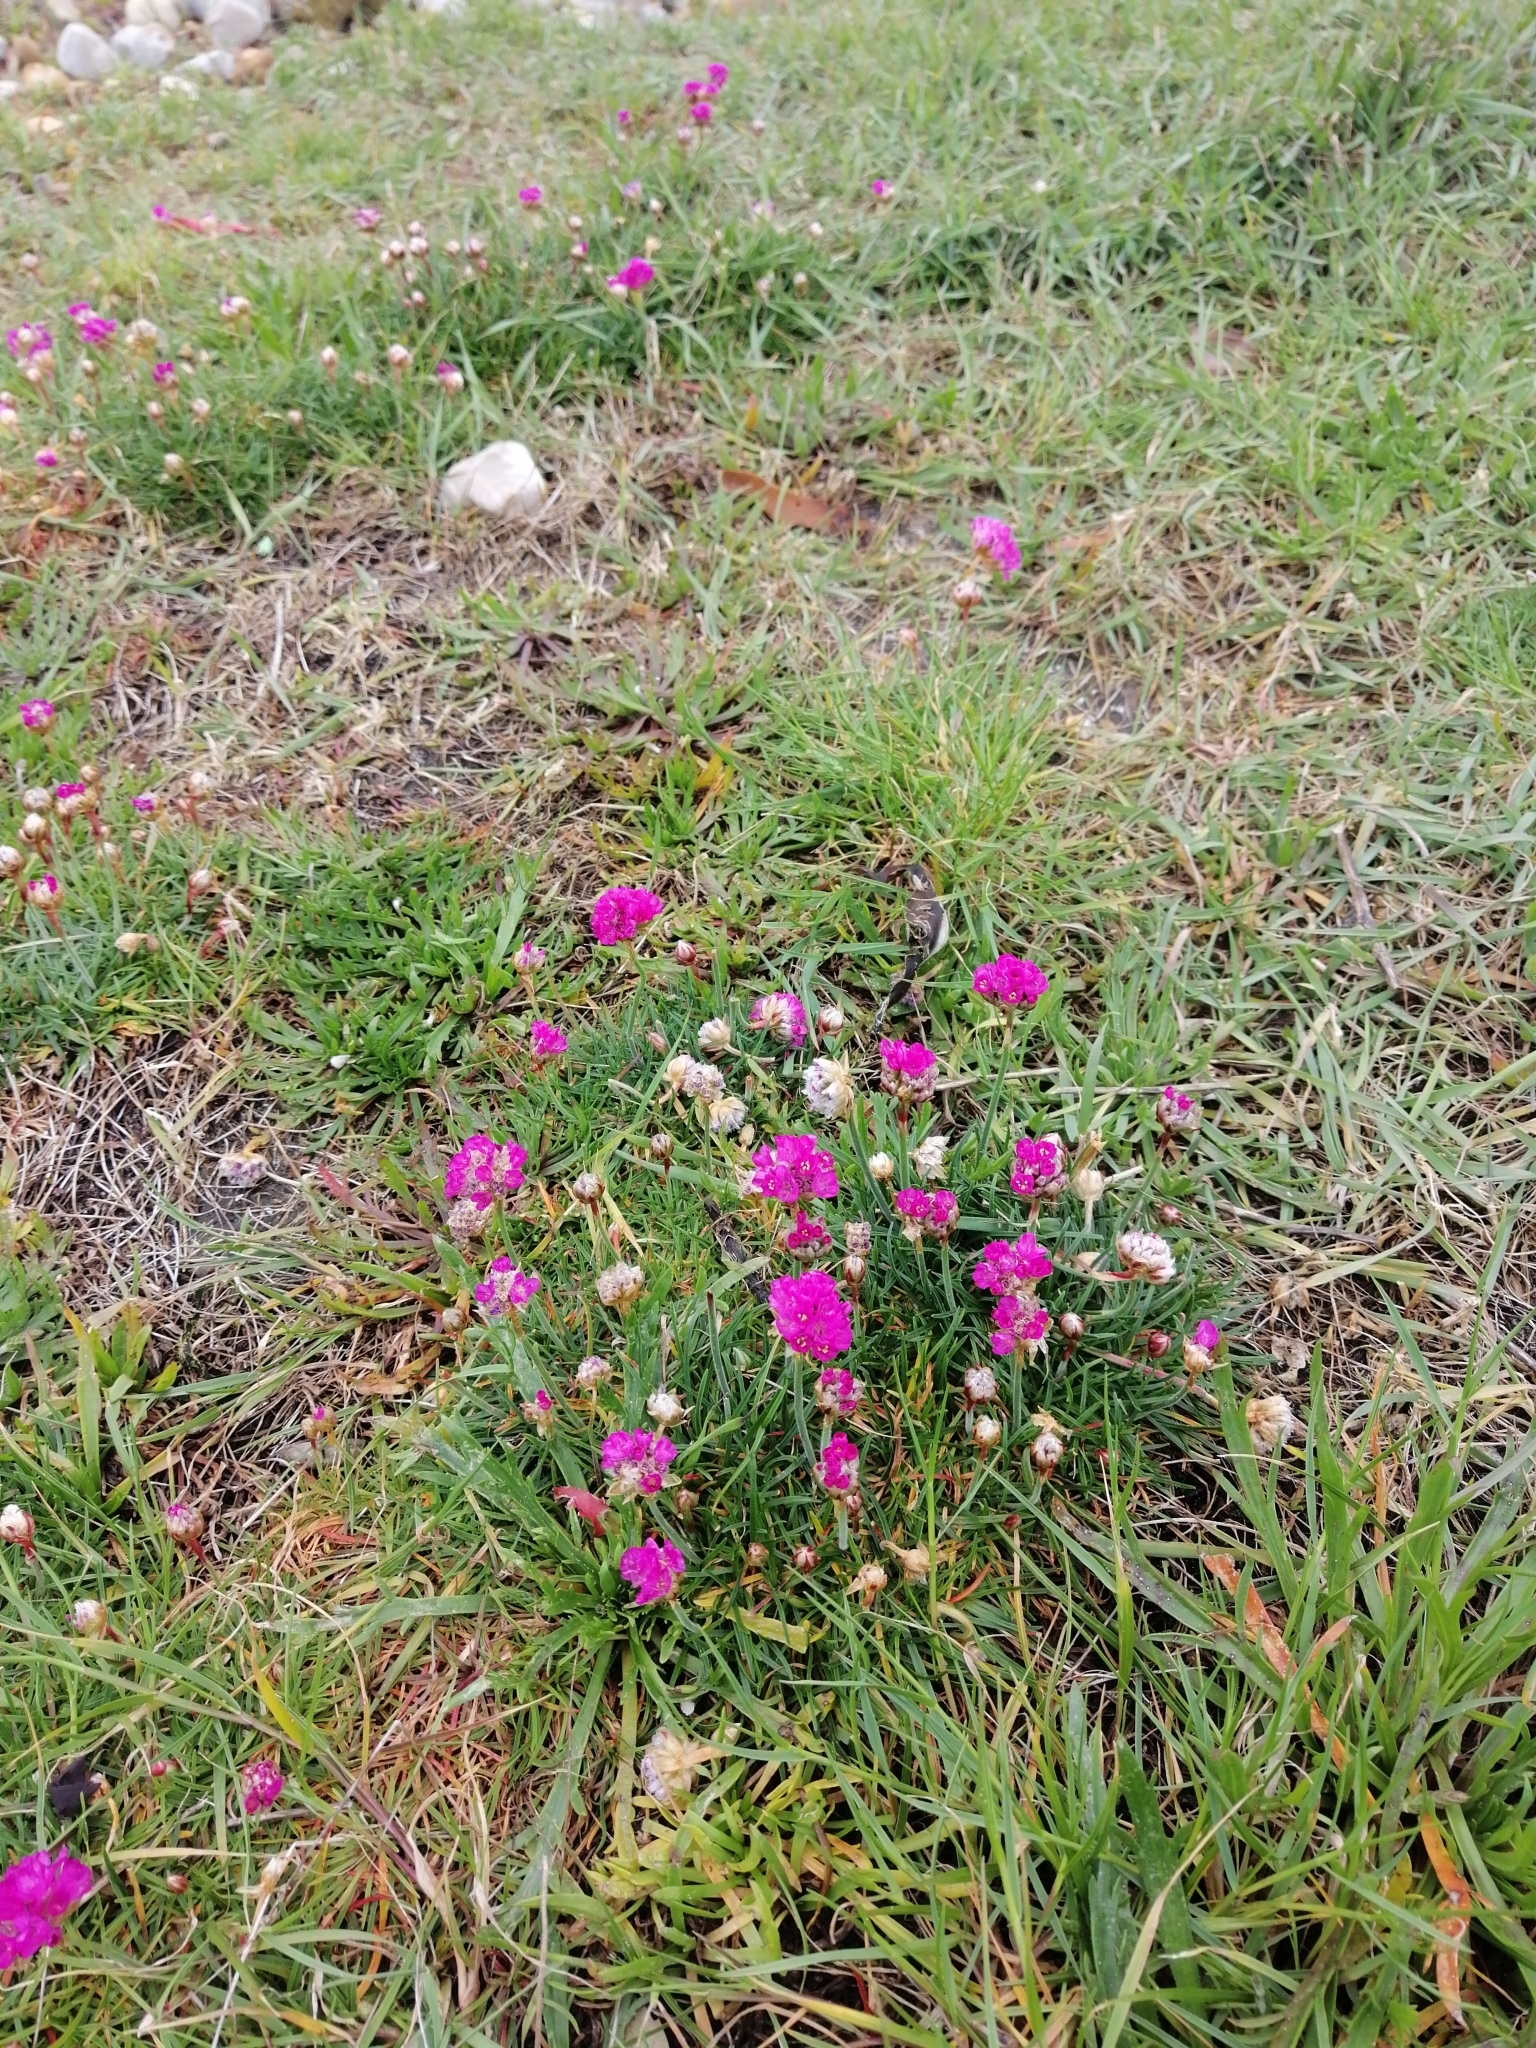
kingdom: Plantae
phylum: Tracheophyta
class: Magnoliopsida
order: Caryophyllales
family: Plumbaginaceae
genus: Armeria
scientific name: Armeria maritima
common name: Thrift
